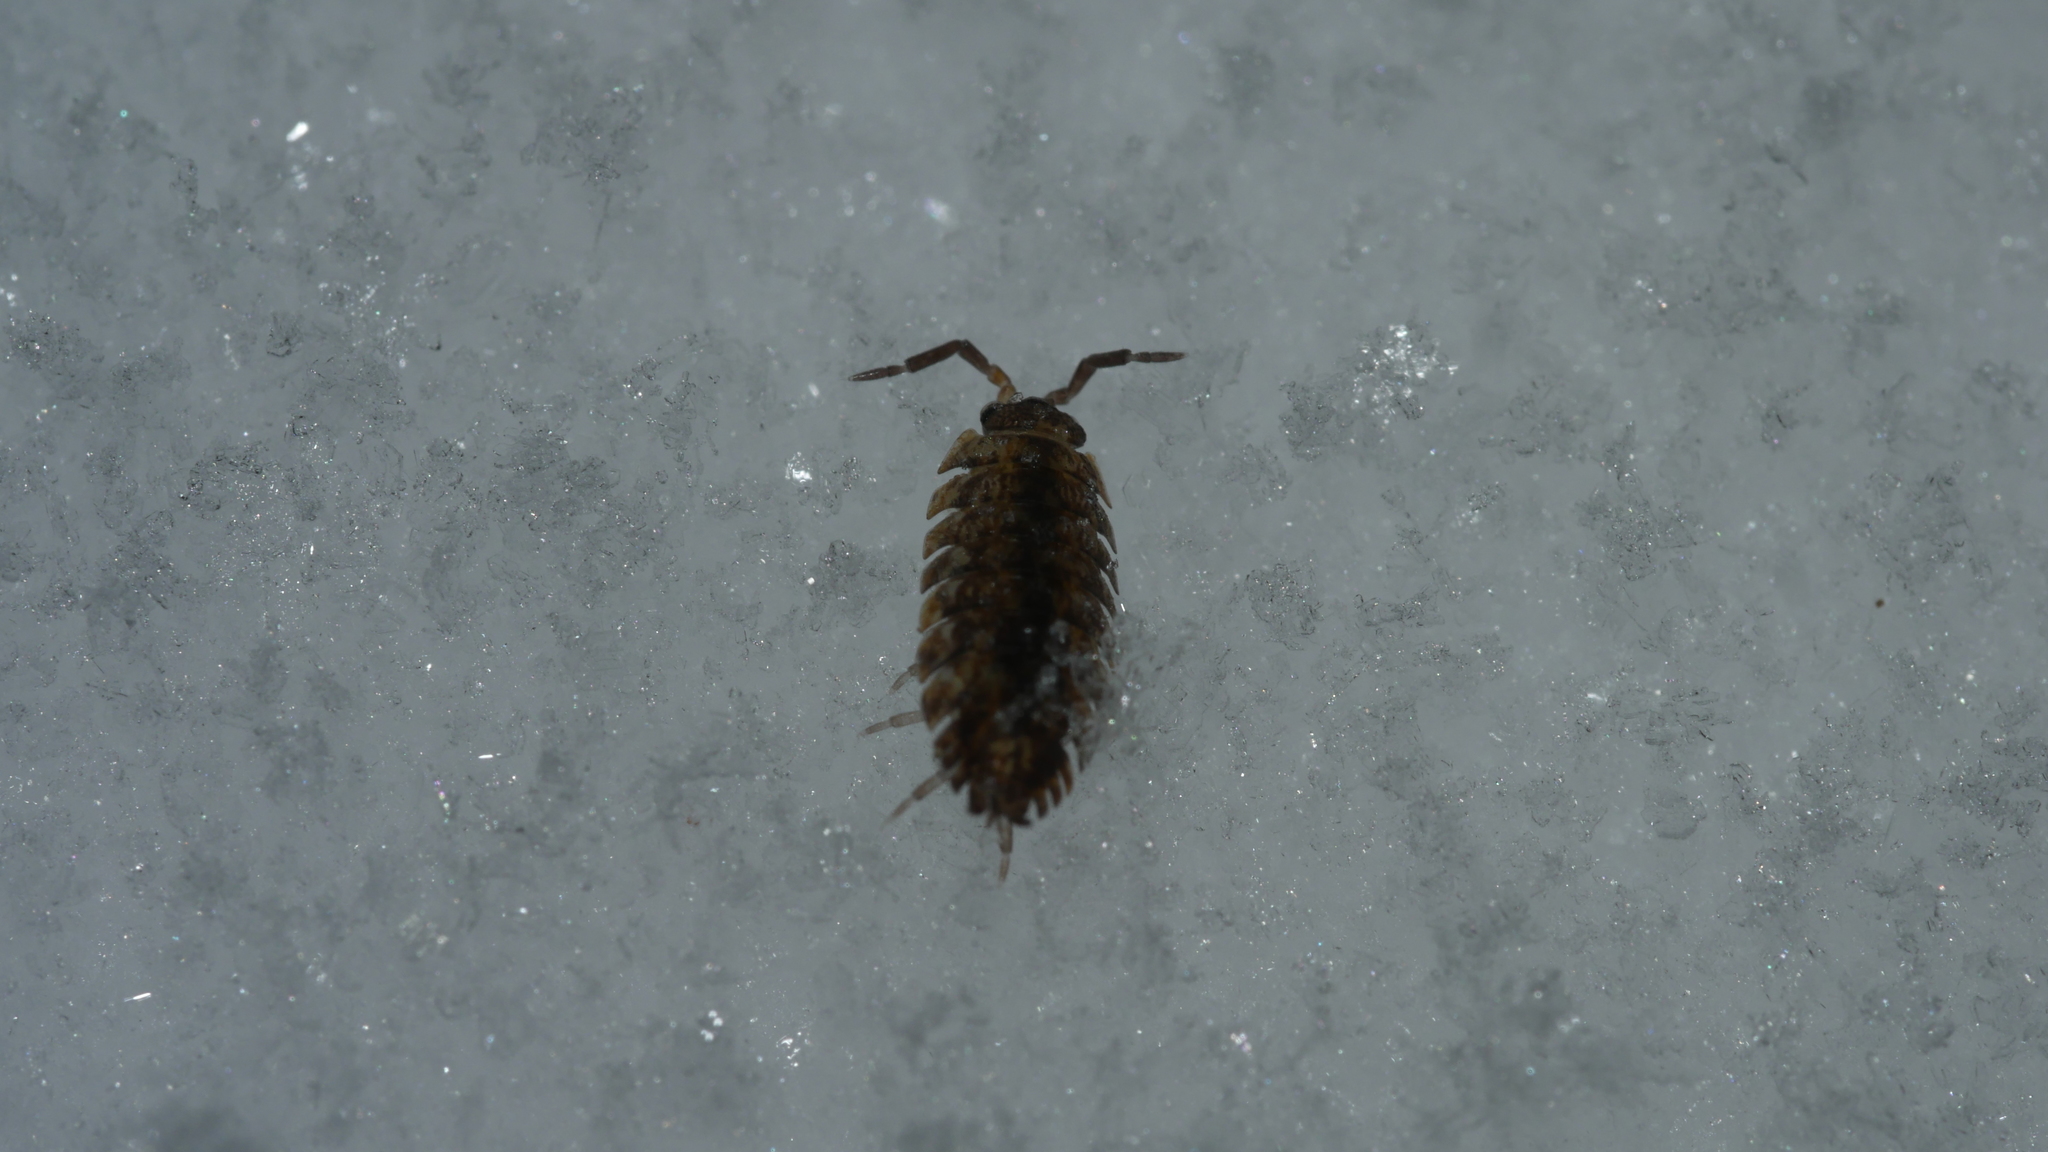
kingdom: Animalia
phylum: Arthropoda
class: Malacostraca
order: Isopoda
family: Porcellionidae
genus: Porcellio
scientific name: Porcellio scaber
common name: Common rough woodlouse
